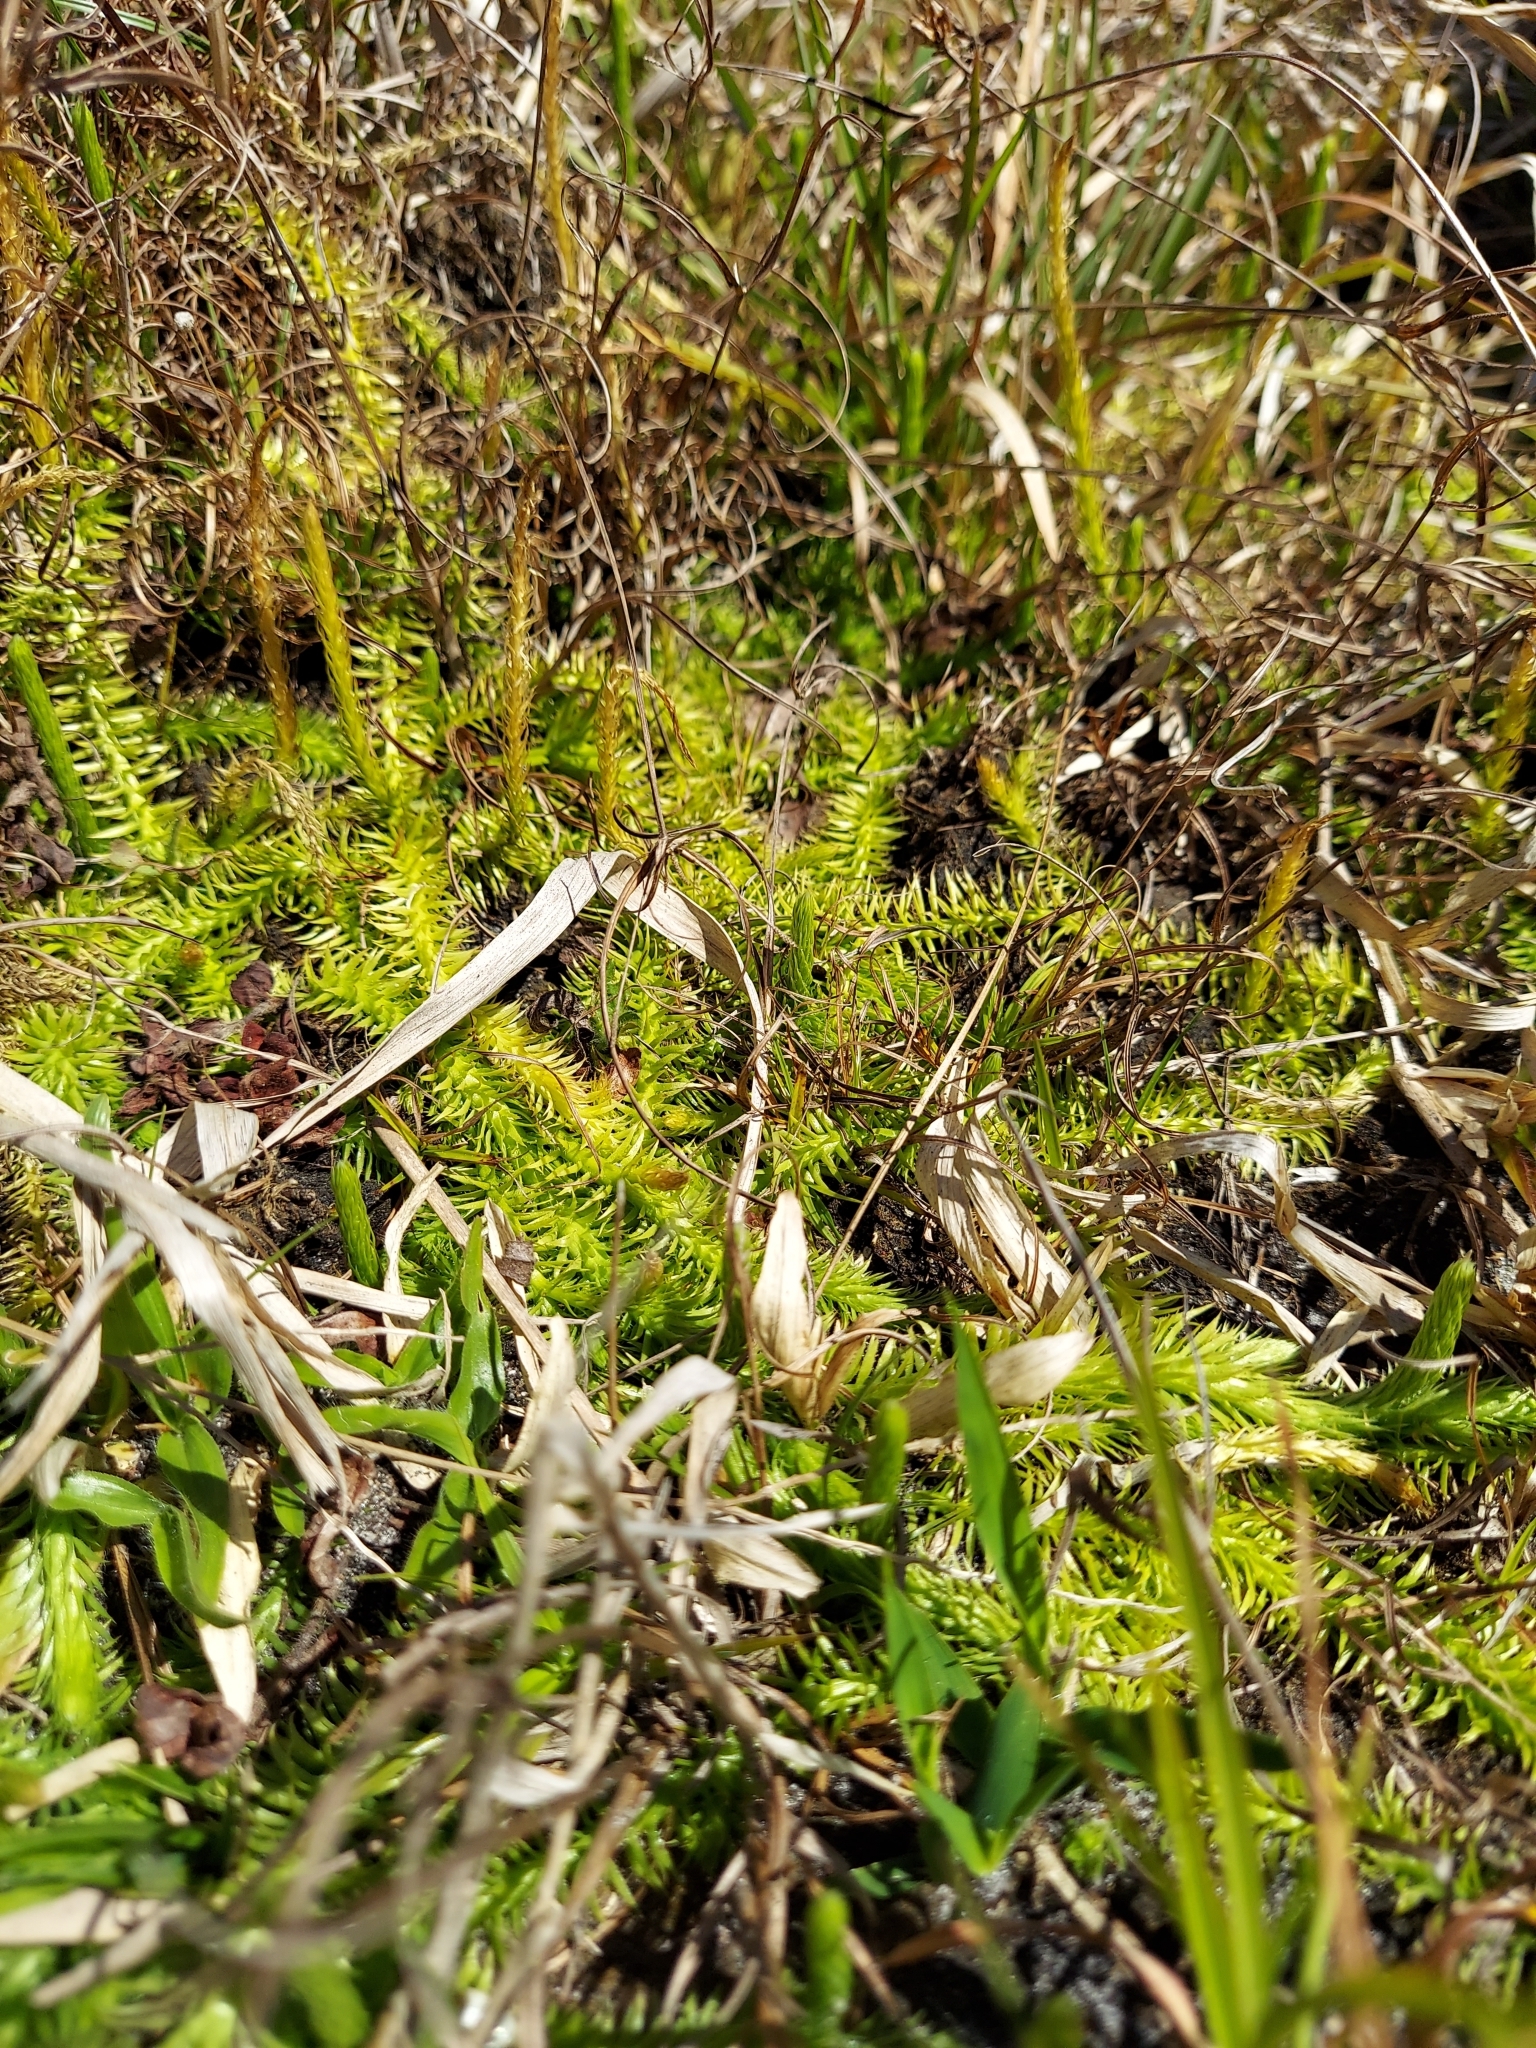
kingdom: Plantae
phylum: Tracheophyta
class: Lycopodiopsida
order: Lycopodiales
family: Lycopodiaceae
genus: Lycopodiella
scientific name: Lycopodiella appressa
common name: Appressed bog clubmoss
